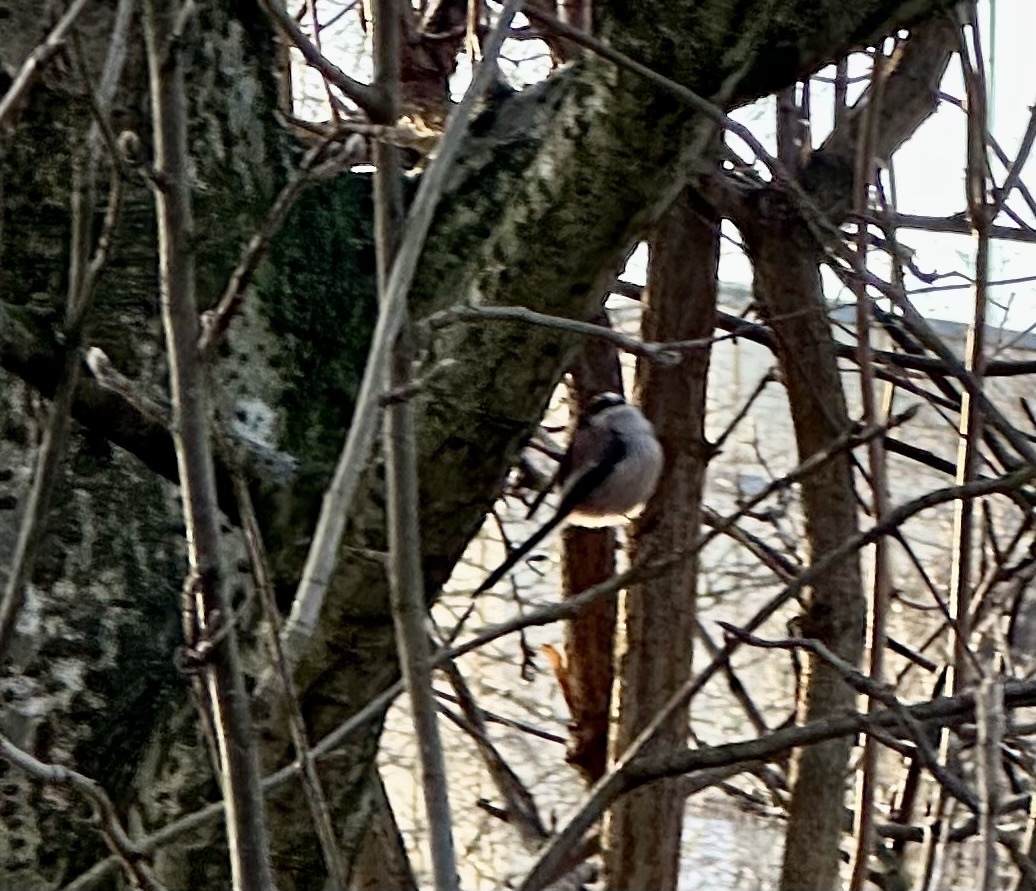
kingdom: Animalia
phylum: Chordata
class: Aves
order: Passeriformes
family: Aegithalidae
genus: Aegithalos
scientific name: Aegithalos caudatus
